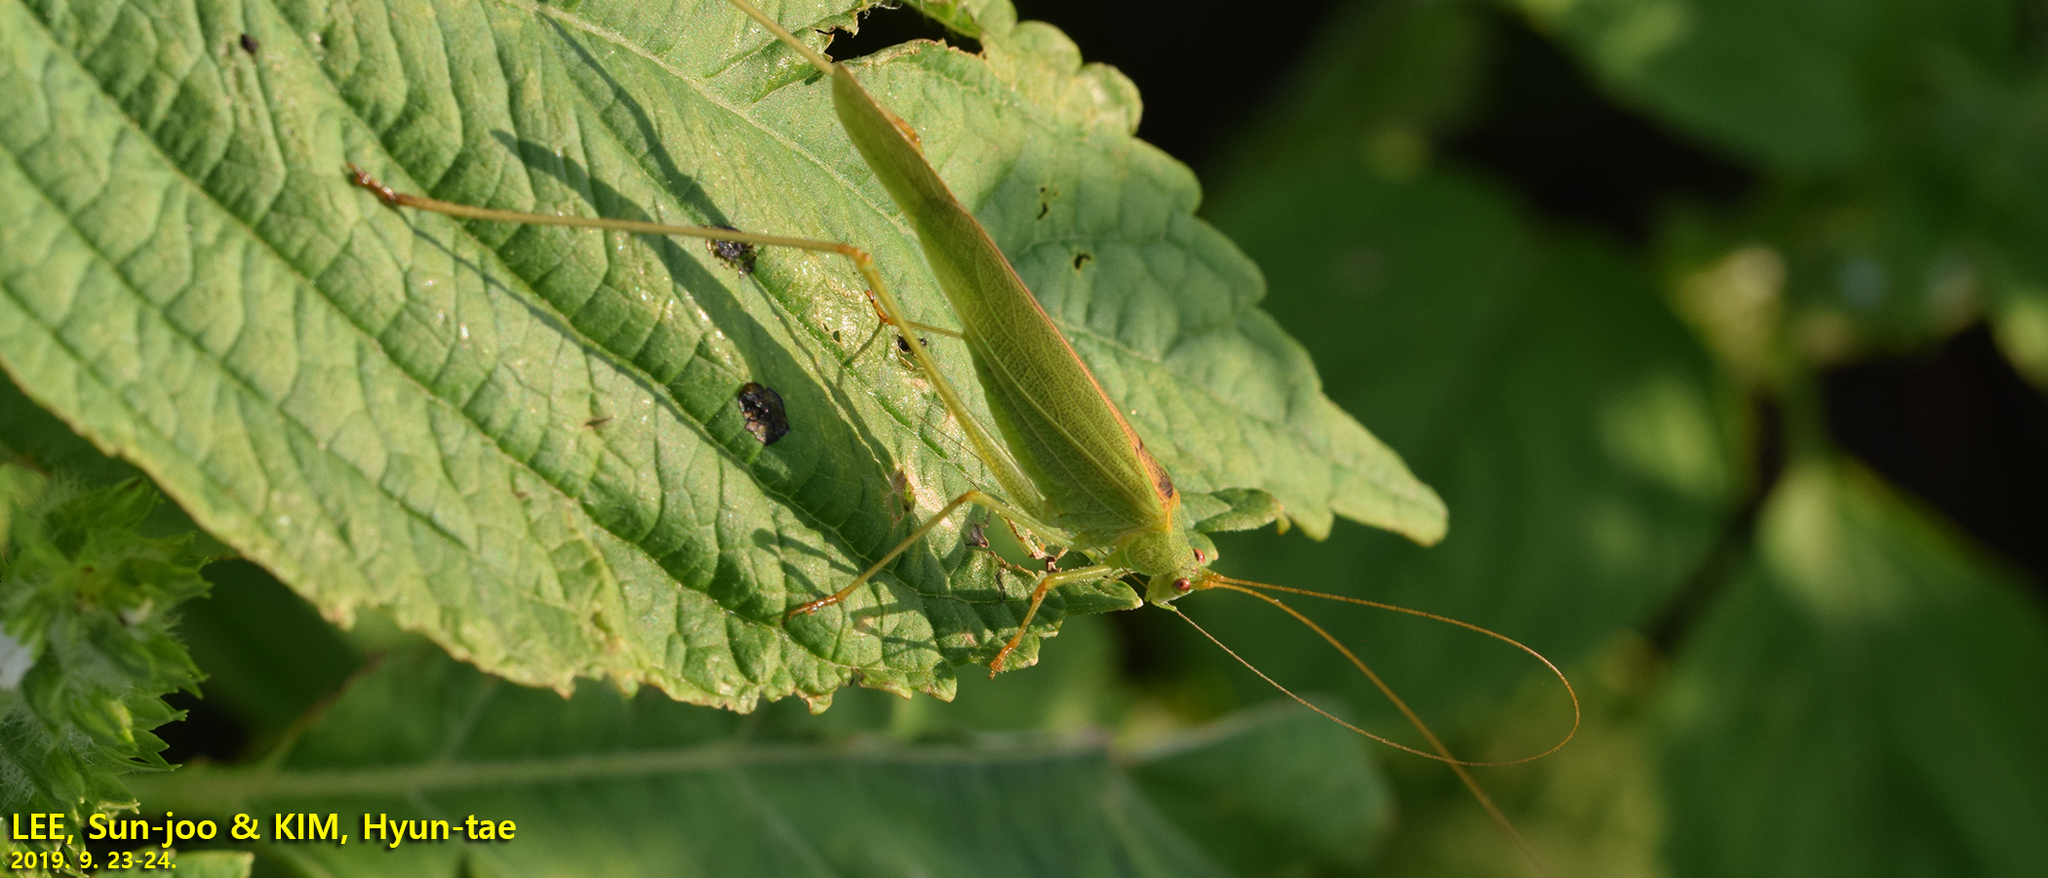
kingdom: Animalia
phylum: Arthropoda
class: Insecta
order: Orthoptera
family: Tettigoniidae
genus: Phaneroptera
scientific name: Phaneroptera falcata
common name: Sickle-bearing bush-cricket
